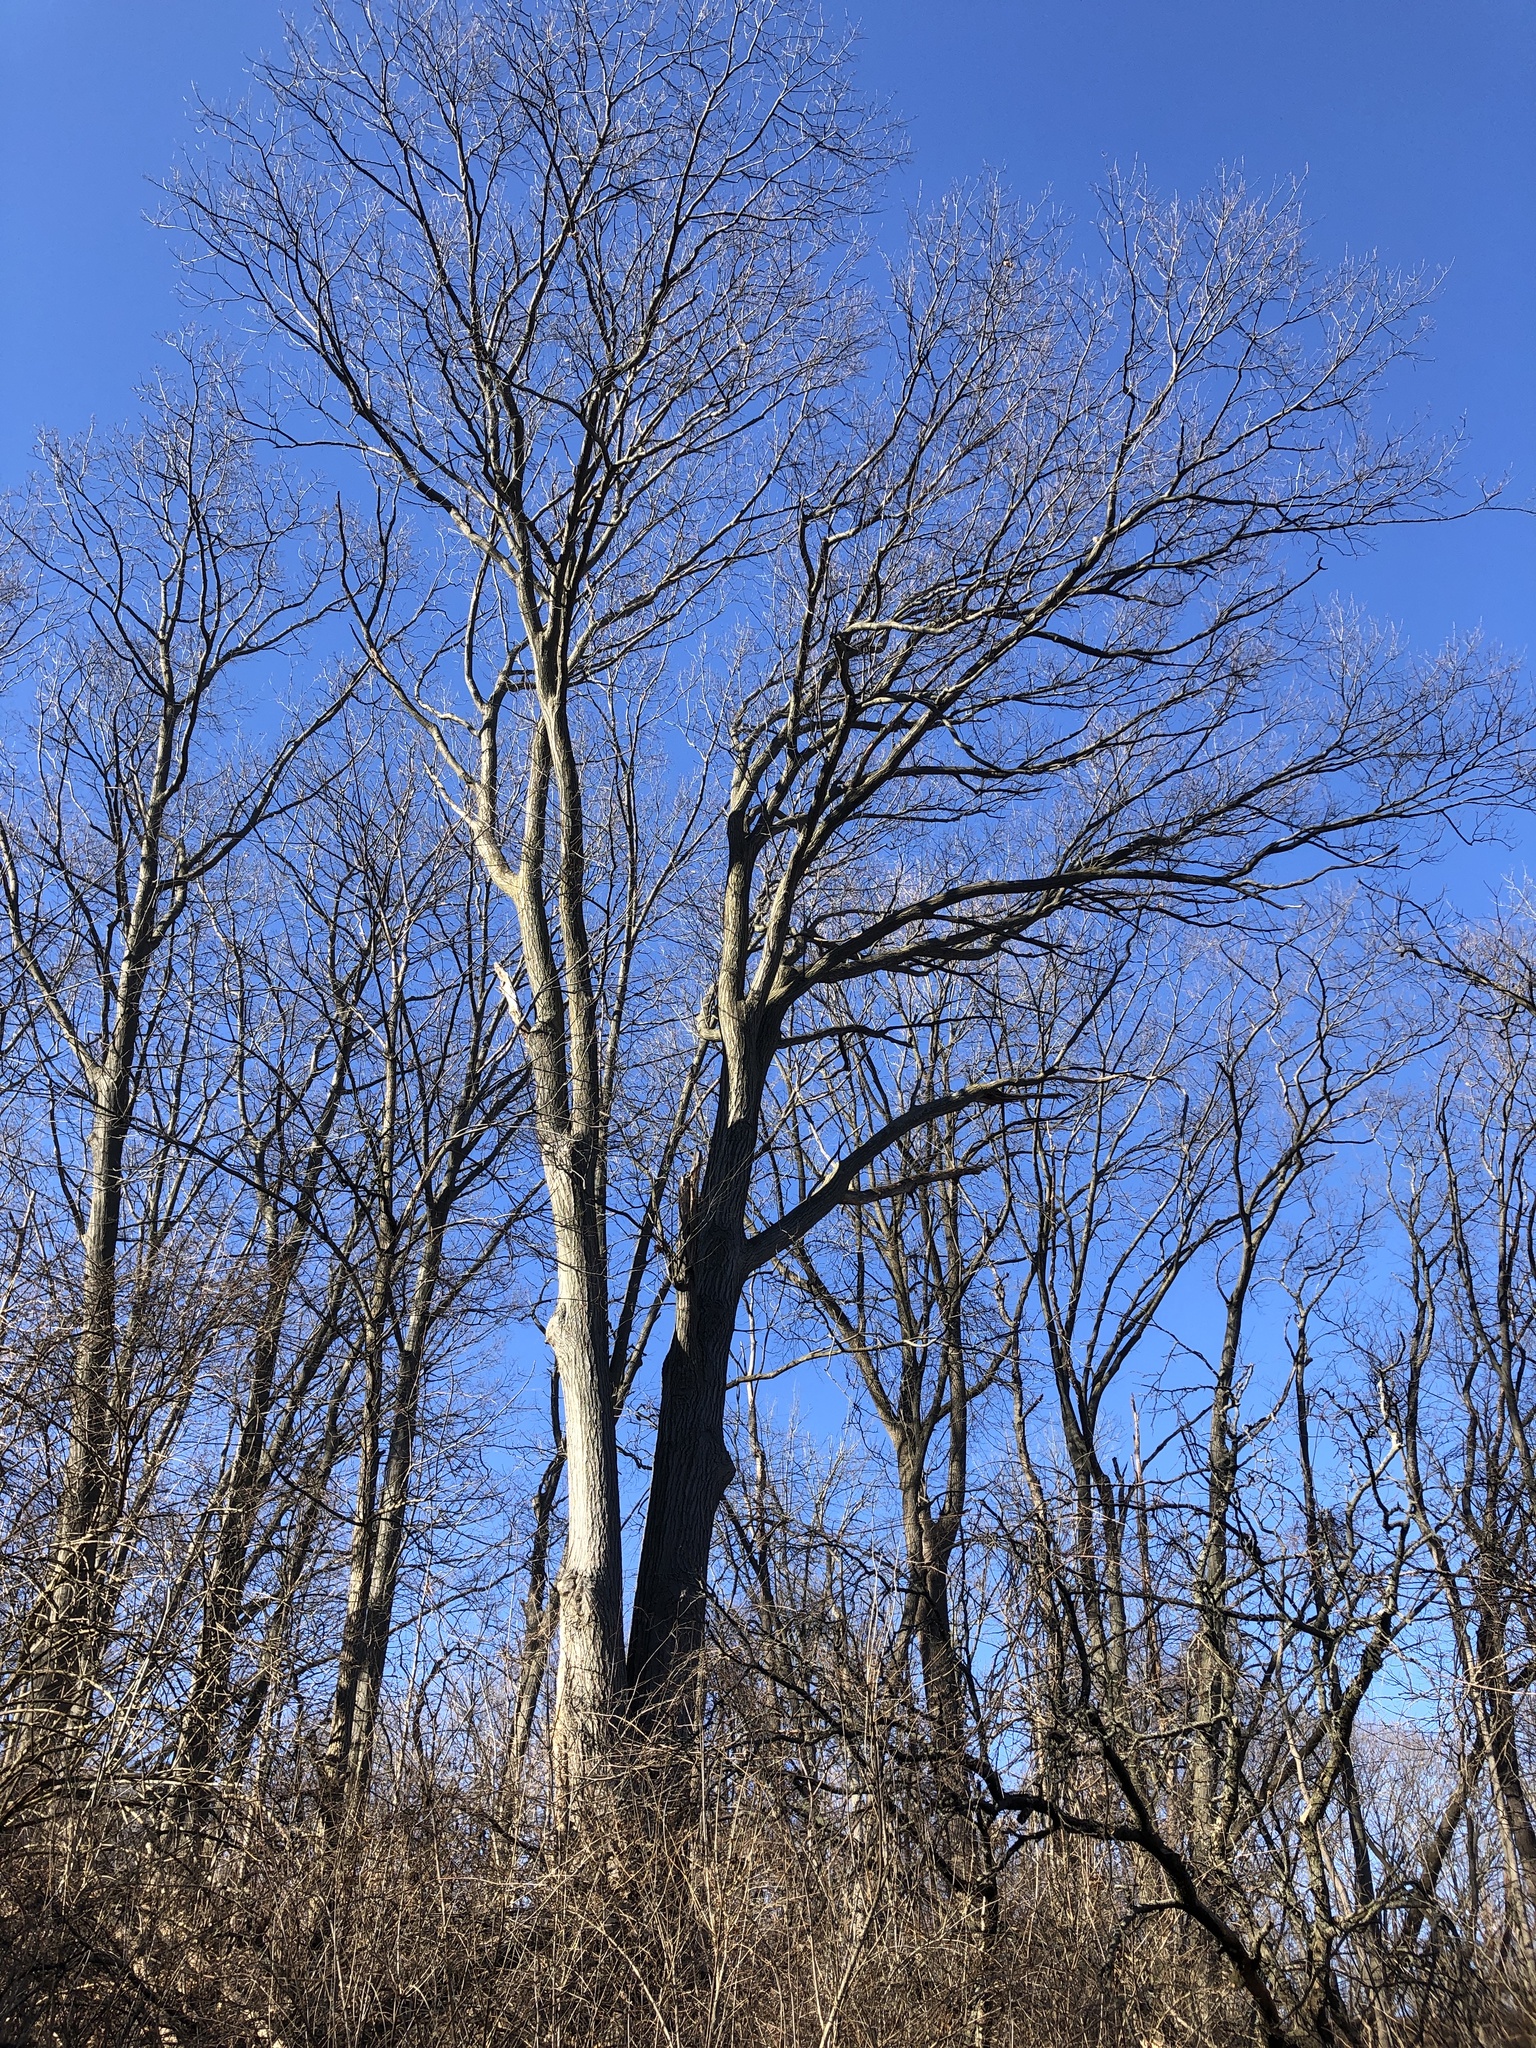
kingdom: Plantae
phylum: Tracheophyta
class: Magnoliopsida
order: Fagales
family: Fagaceae
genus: Quercus
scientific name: Quercus rubra
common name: Red oak
